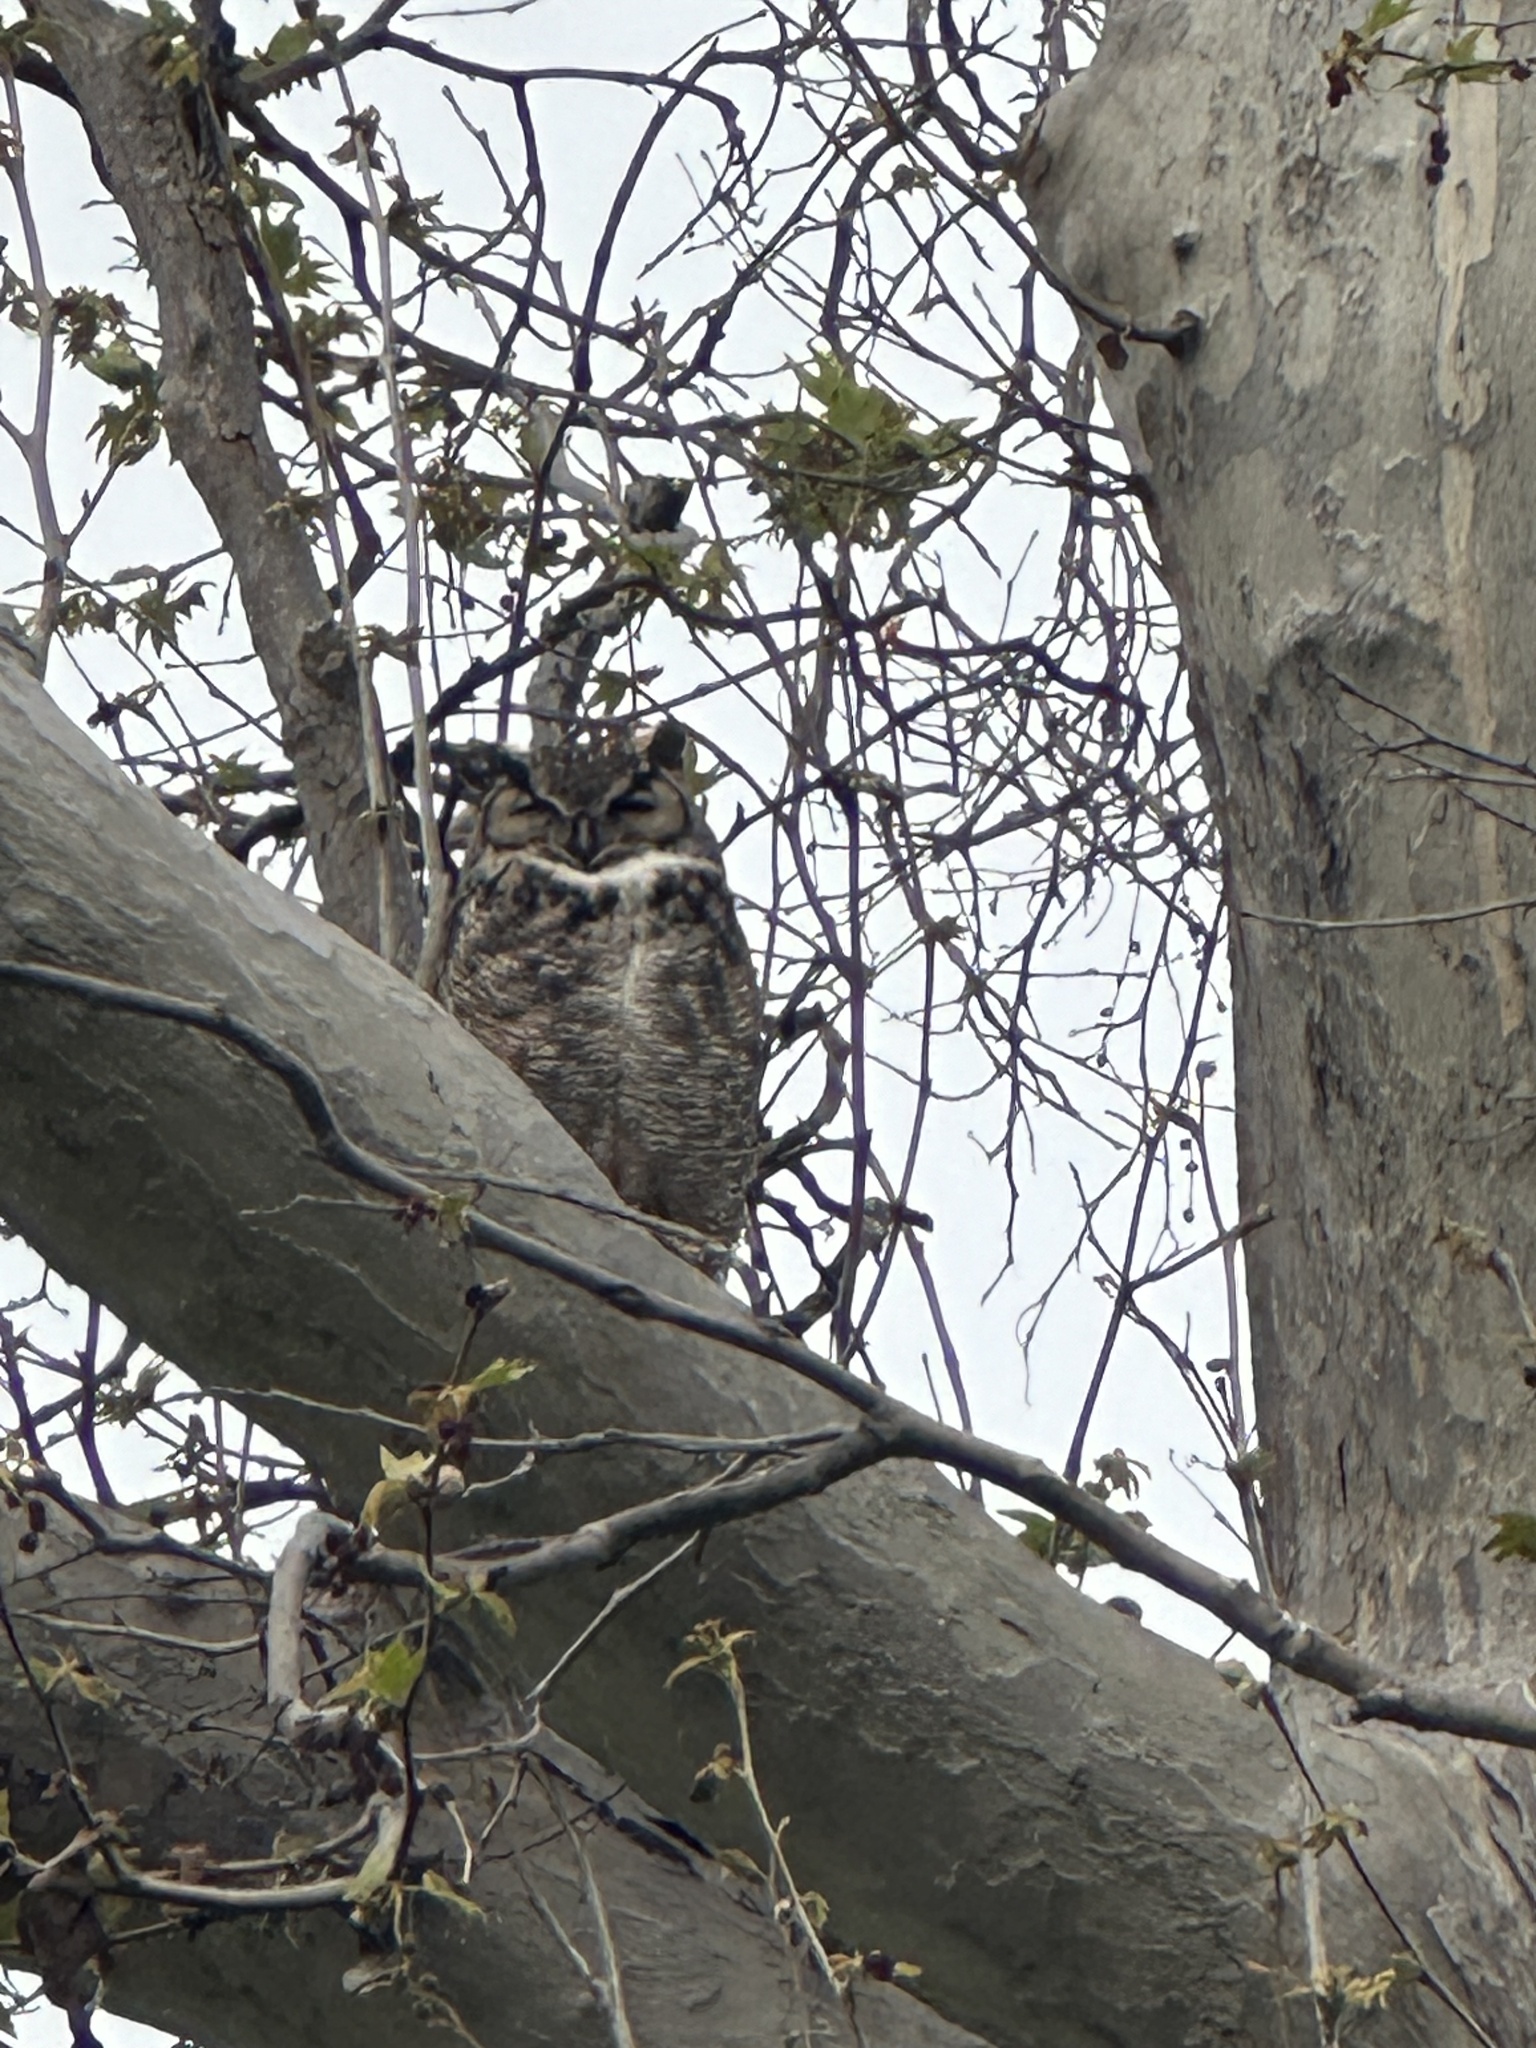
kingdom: Animalia
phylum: Chordata
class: Aves
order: Strigiformes
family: Strigidae
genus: Bubo
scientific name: Bubo virginianus
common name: Great horned owl
